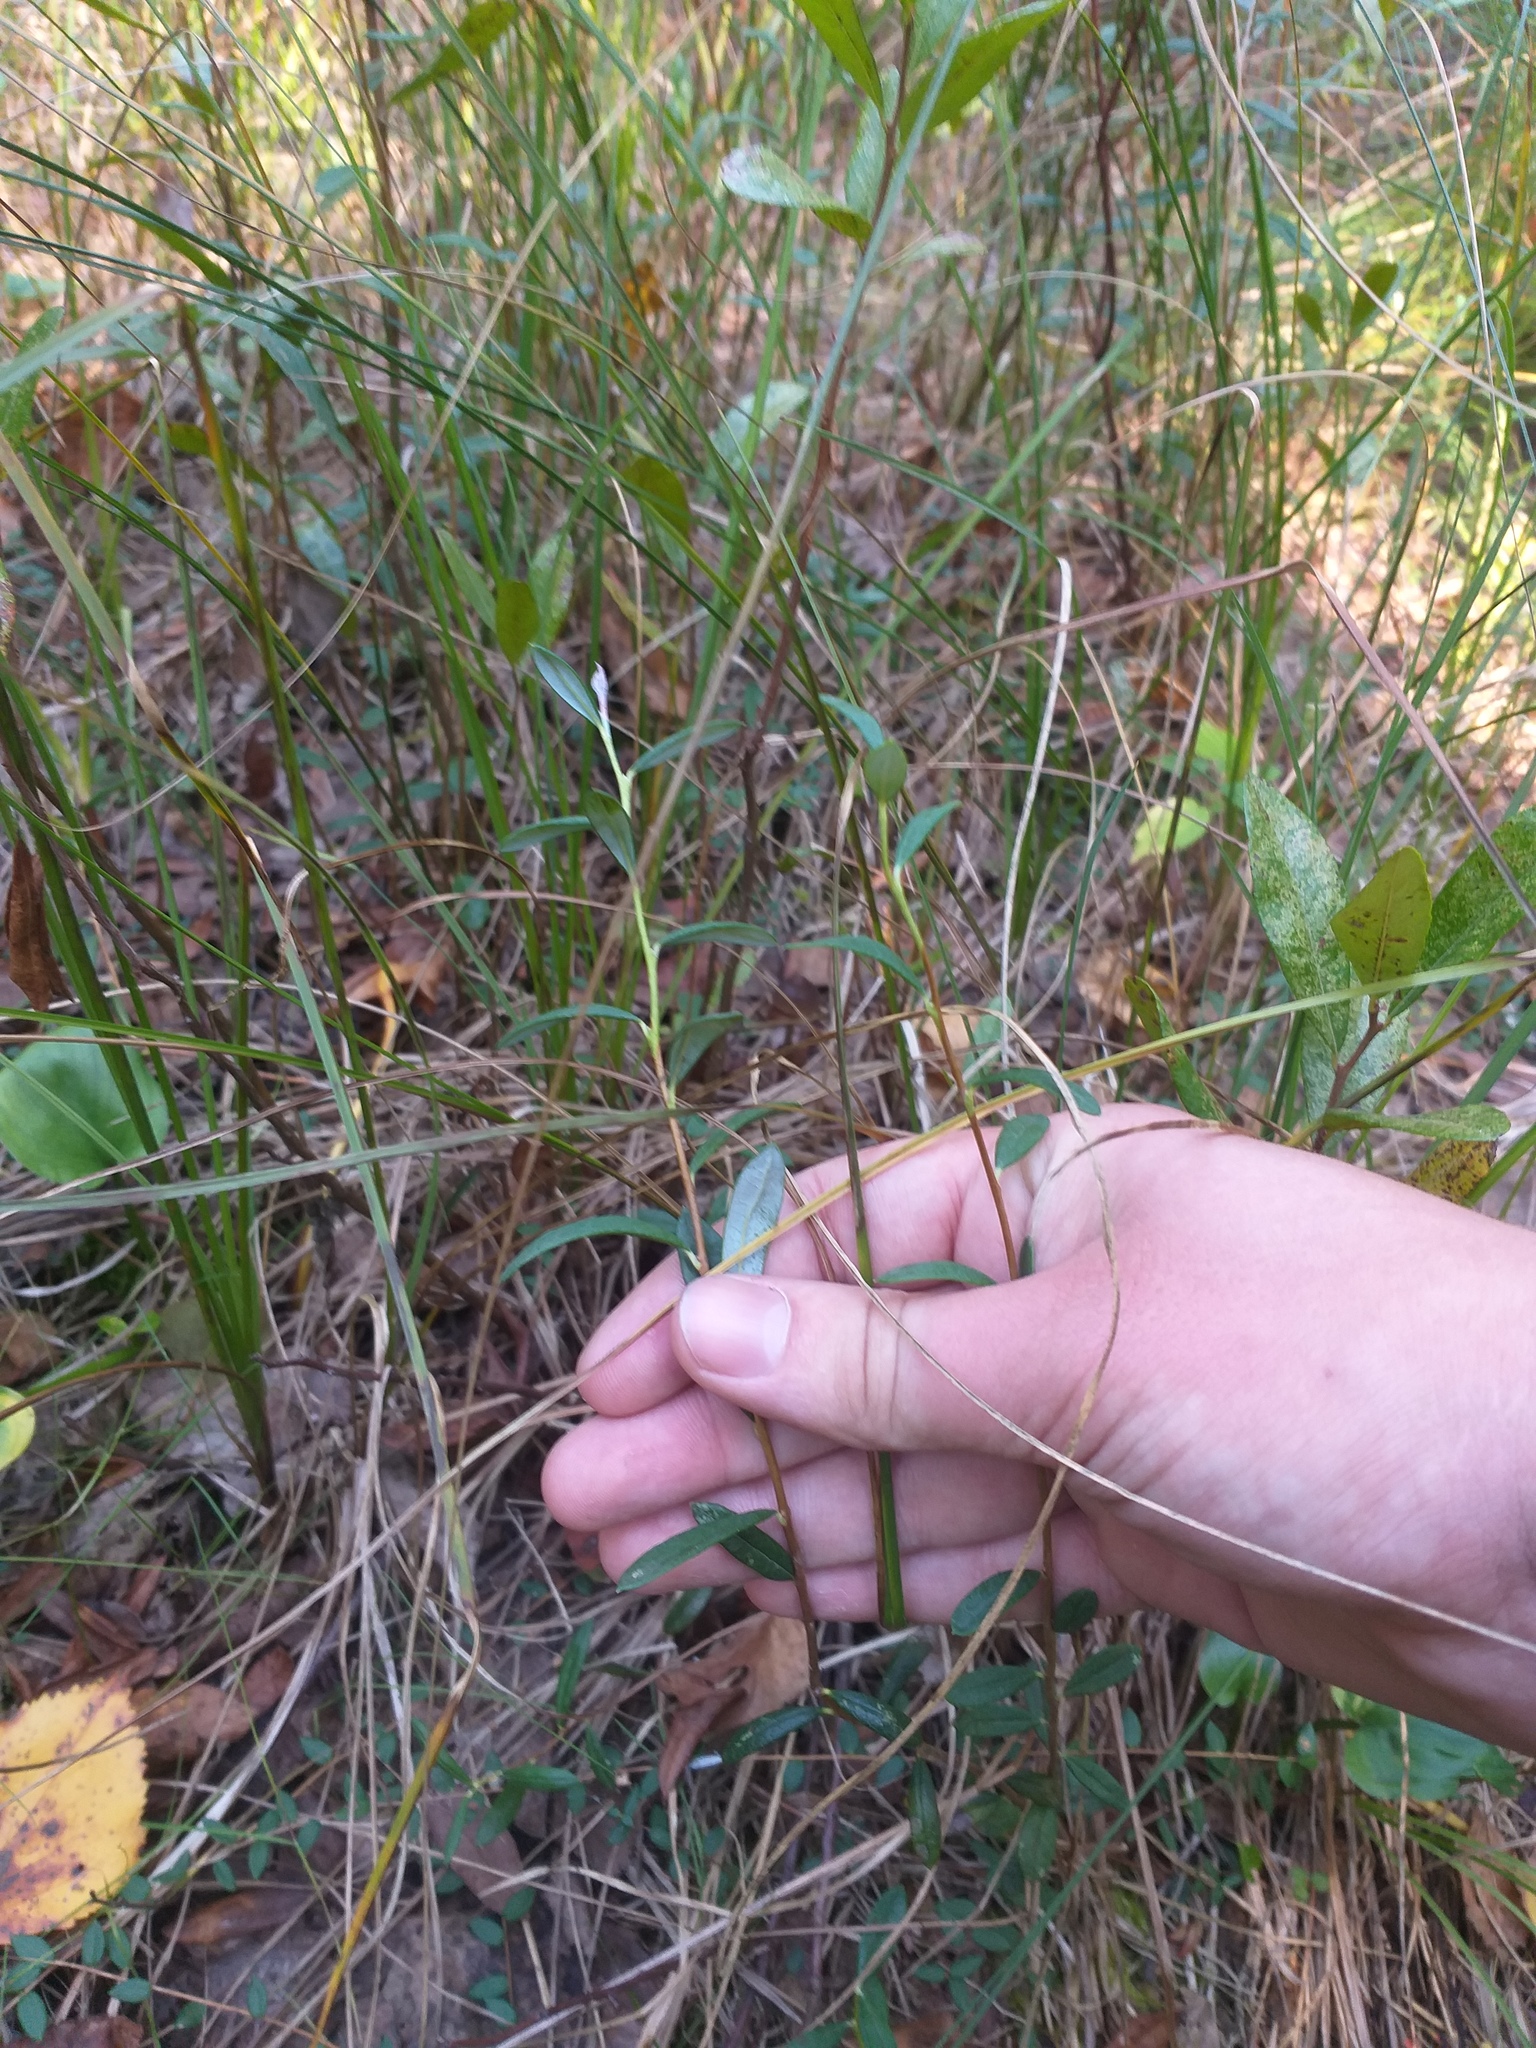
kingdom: Plantae
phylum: Tracheophyta
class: Magnoliopsida
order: Ericales
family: Ericaceae
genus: Andromeda
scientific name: Andromeda polifolia
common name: Bog-rosemary
